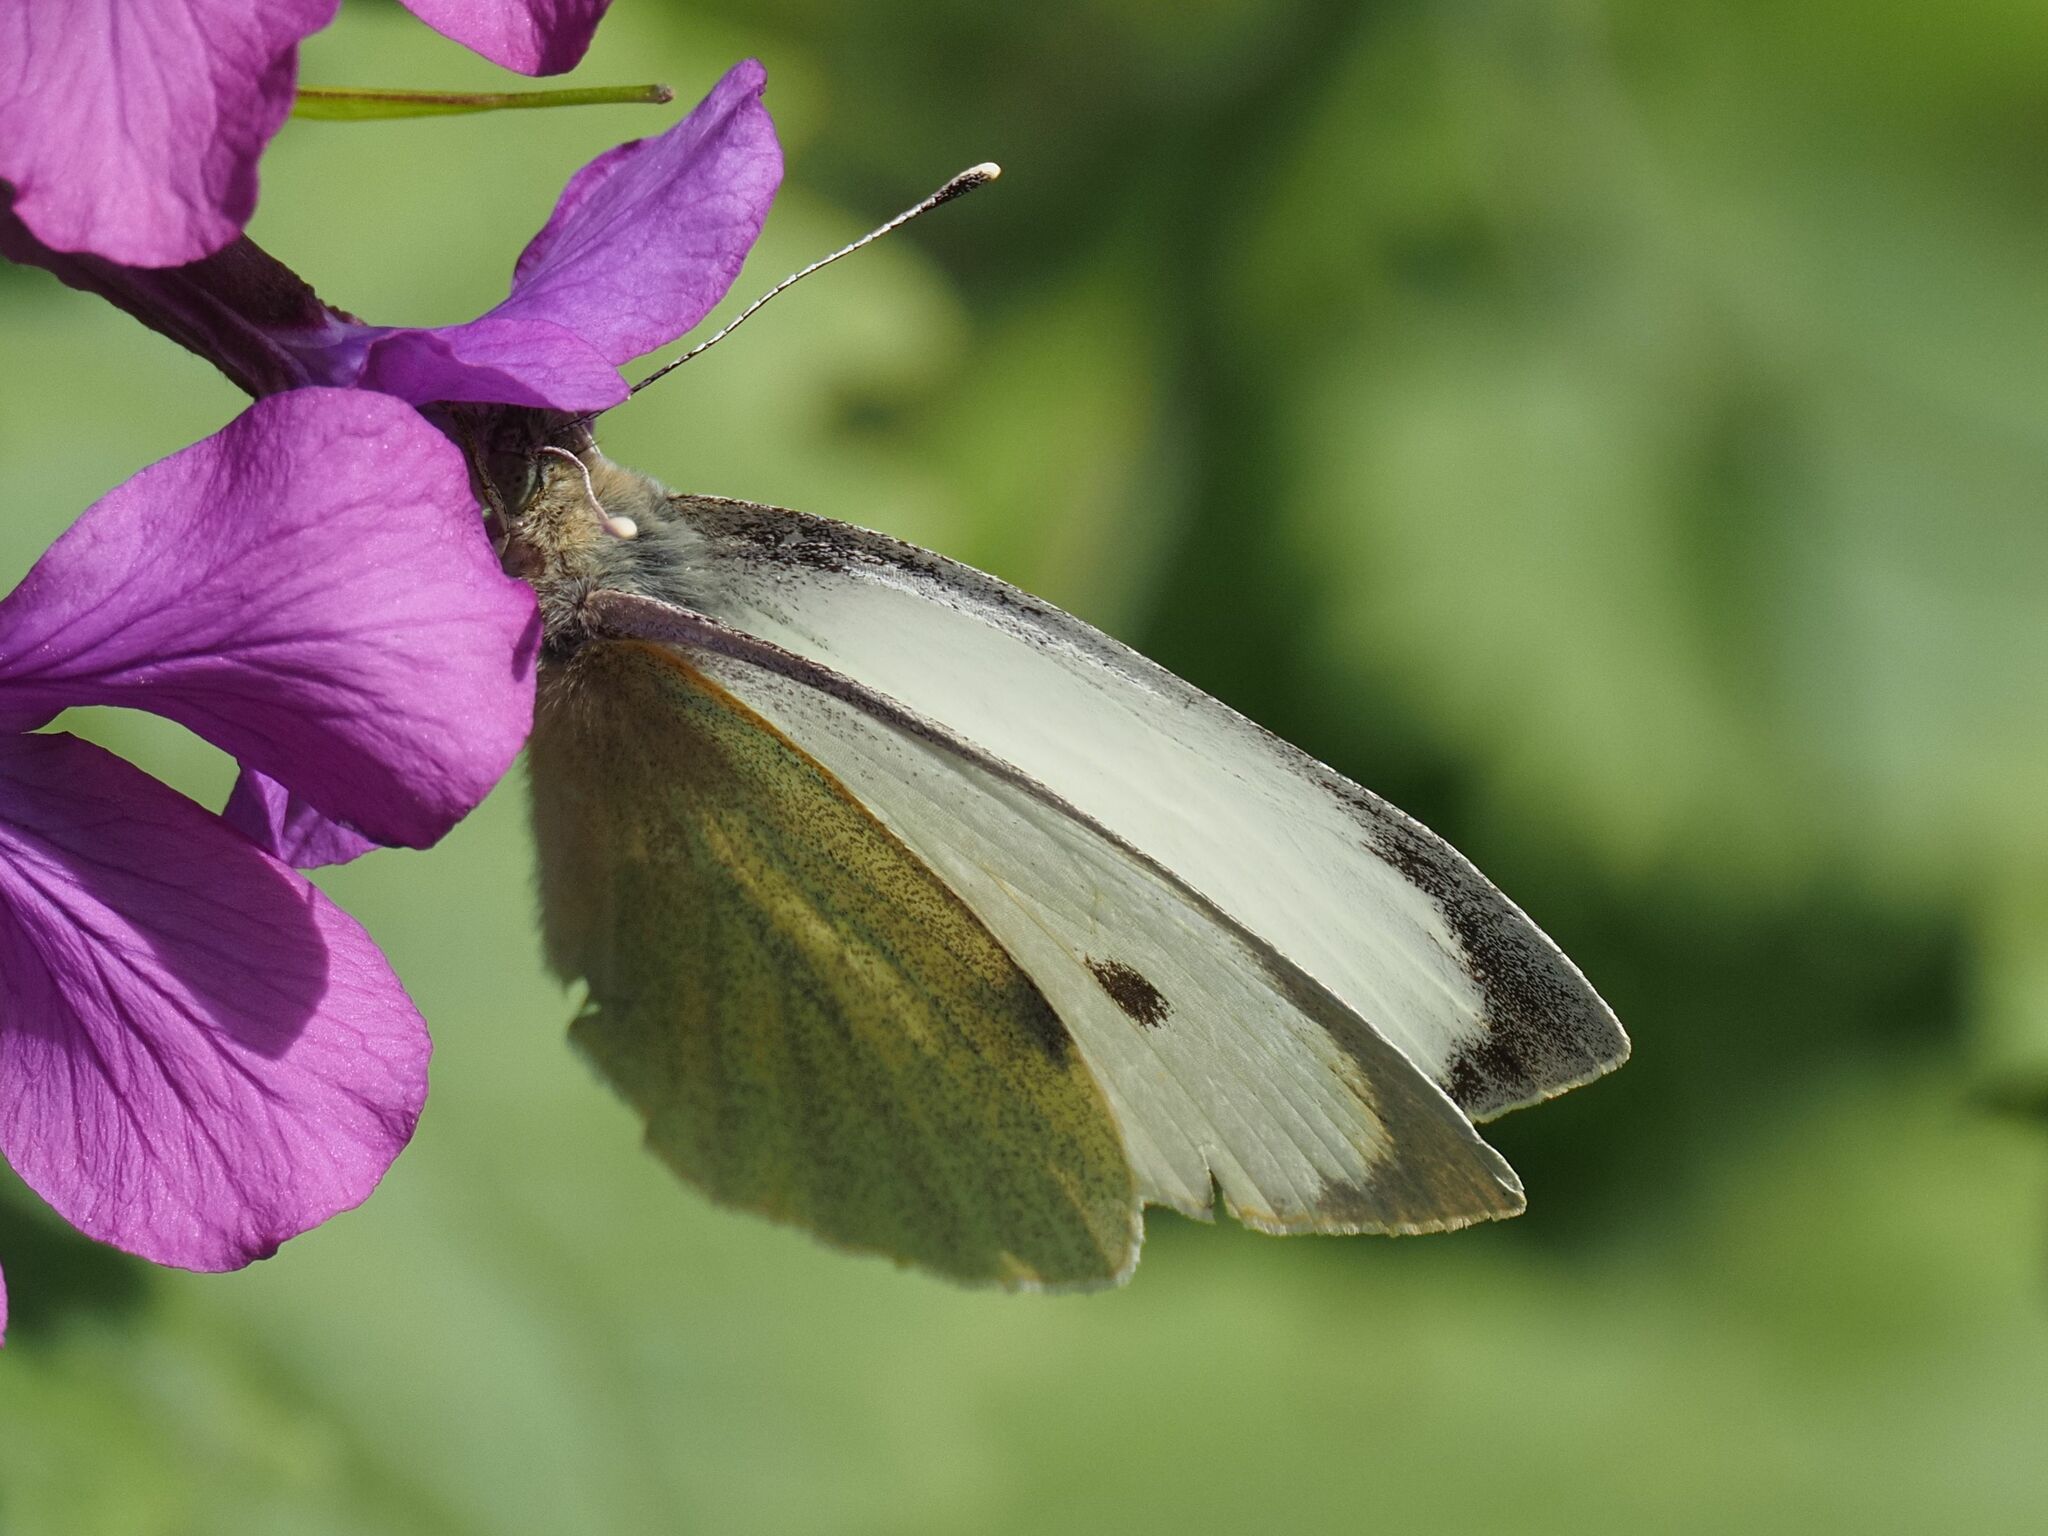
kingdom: Animalia
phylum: Arthropoda
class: Insecta
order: Lepidoptera
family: Pieridae
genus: Pieris
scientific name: Pieris brassicae
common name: Large white
